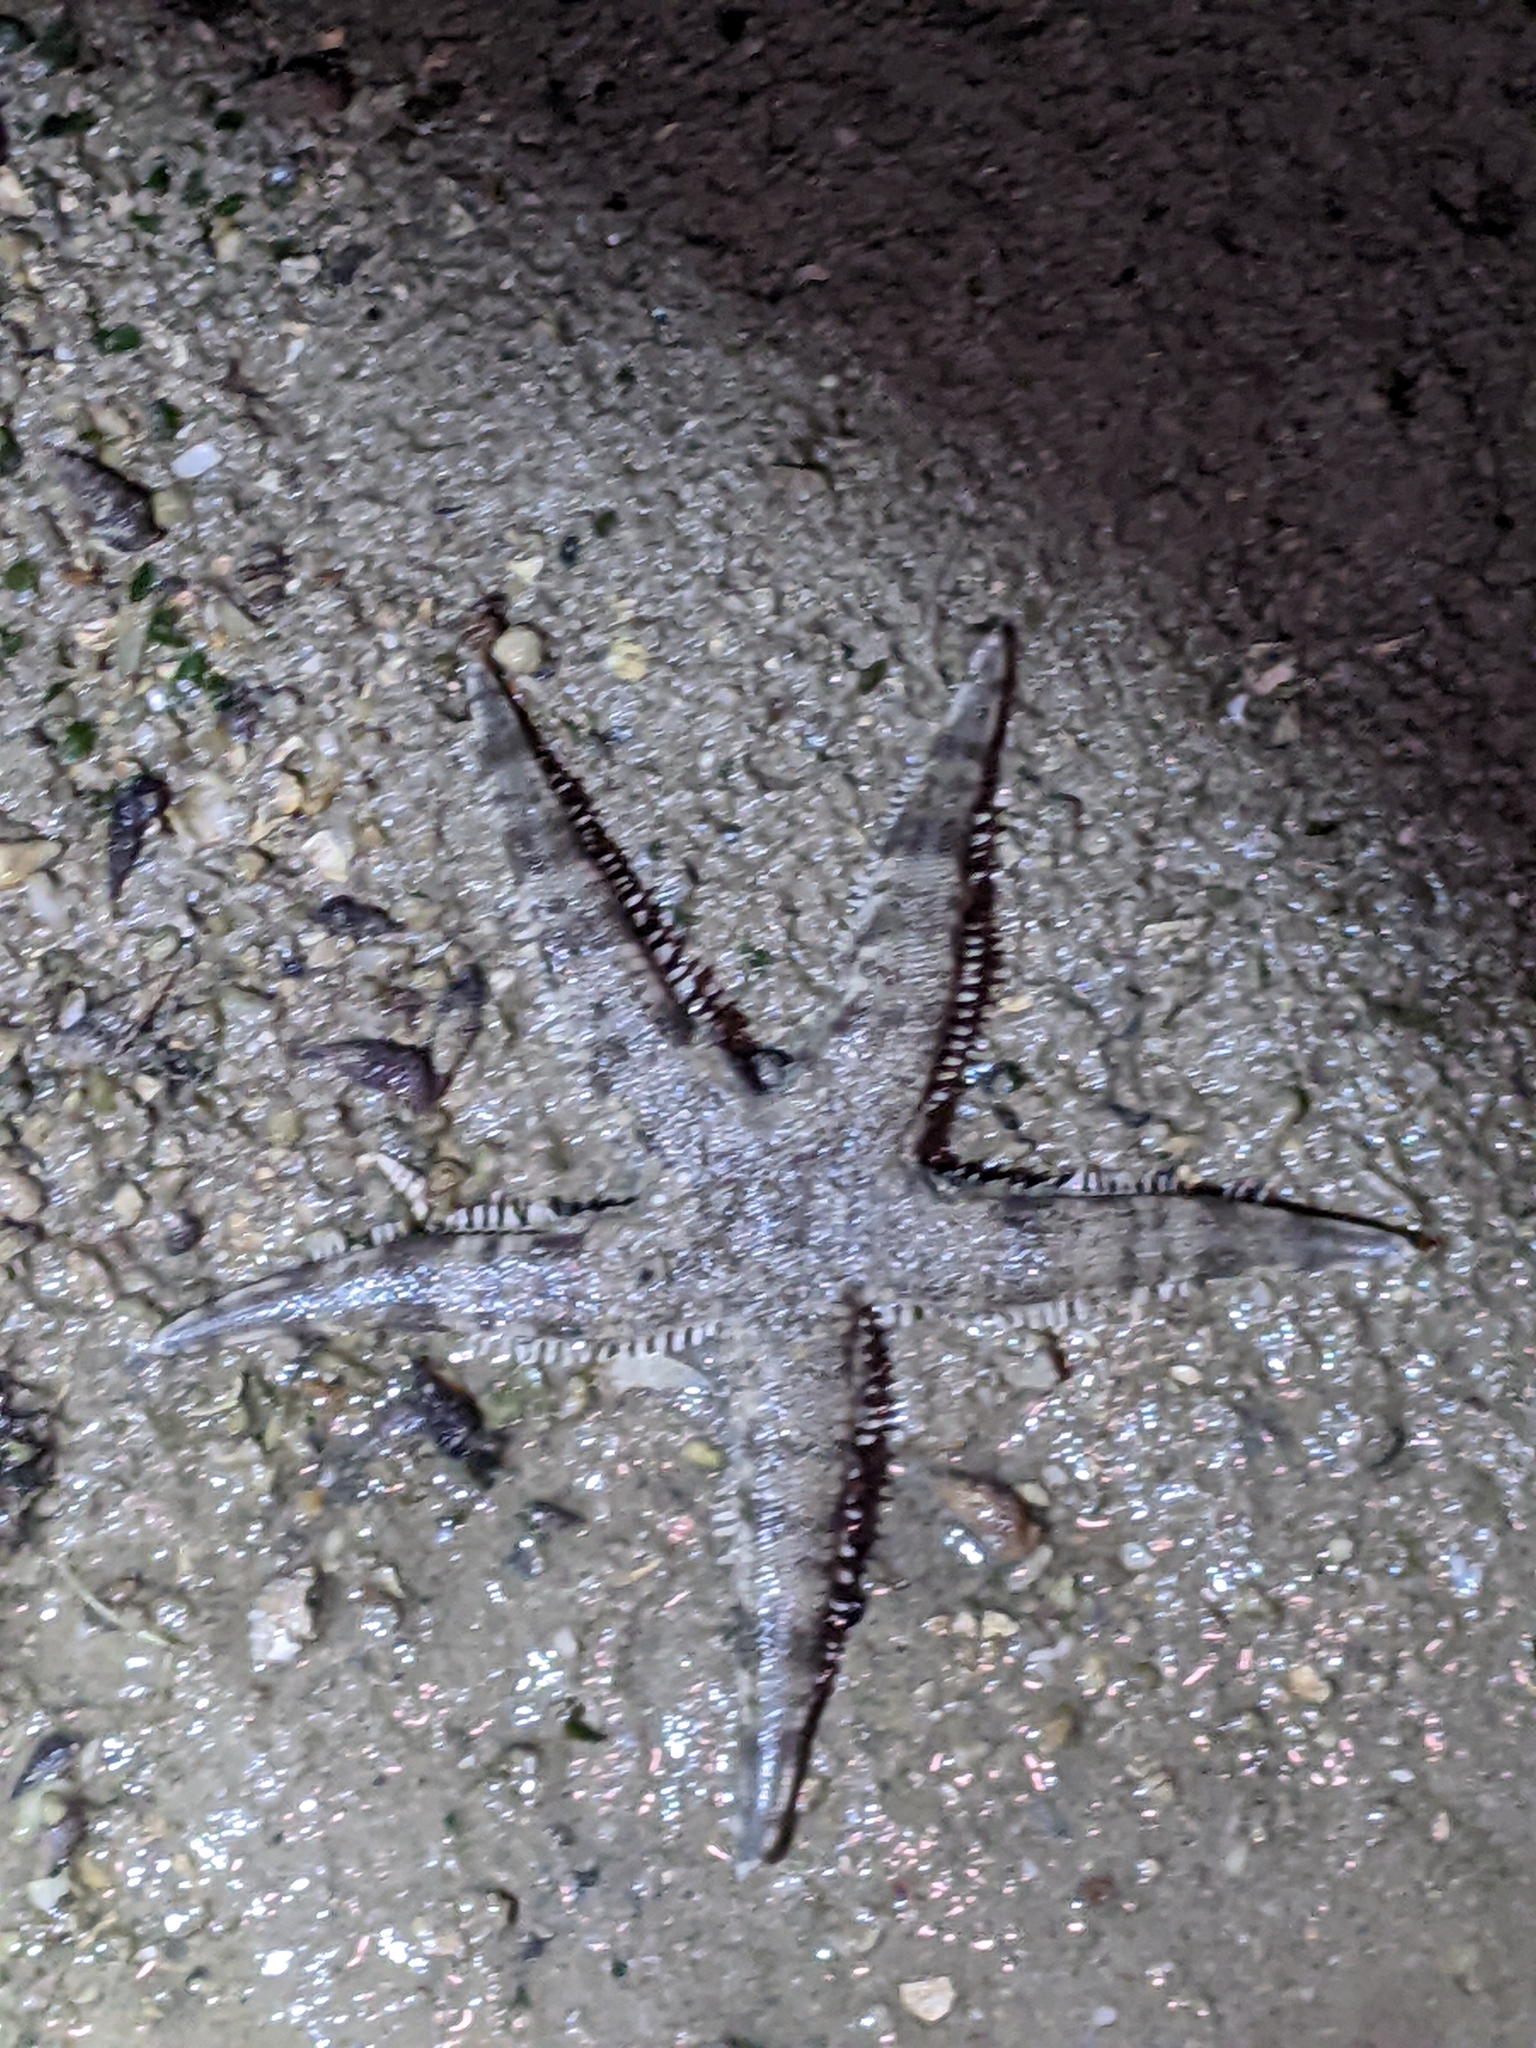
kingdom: Animalia
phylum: Echinodermata
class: Asteroidea
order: Valvatida
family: Archasteridae
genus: Archaster
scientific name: Archaster typicus
